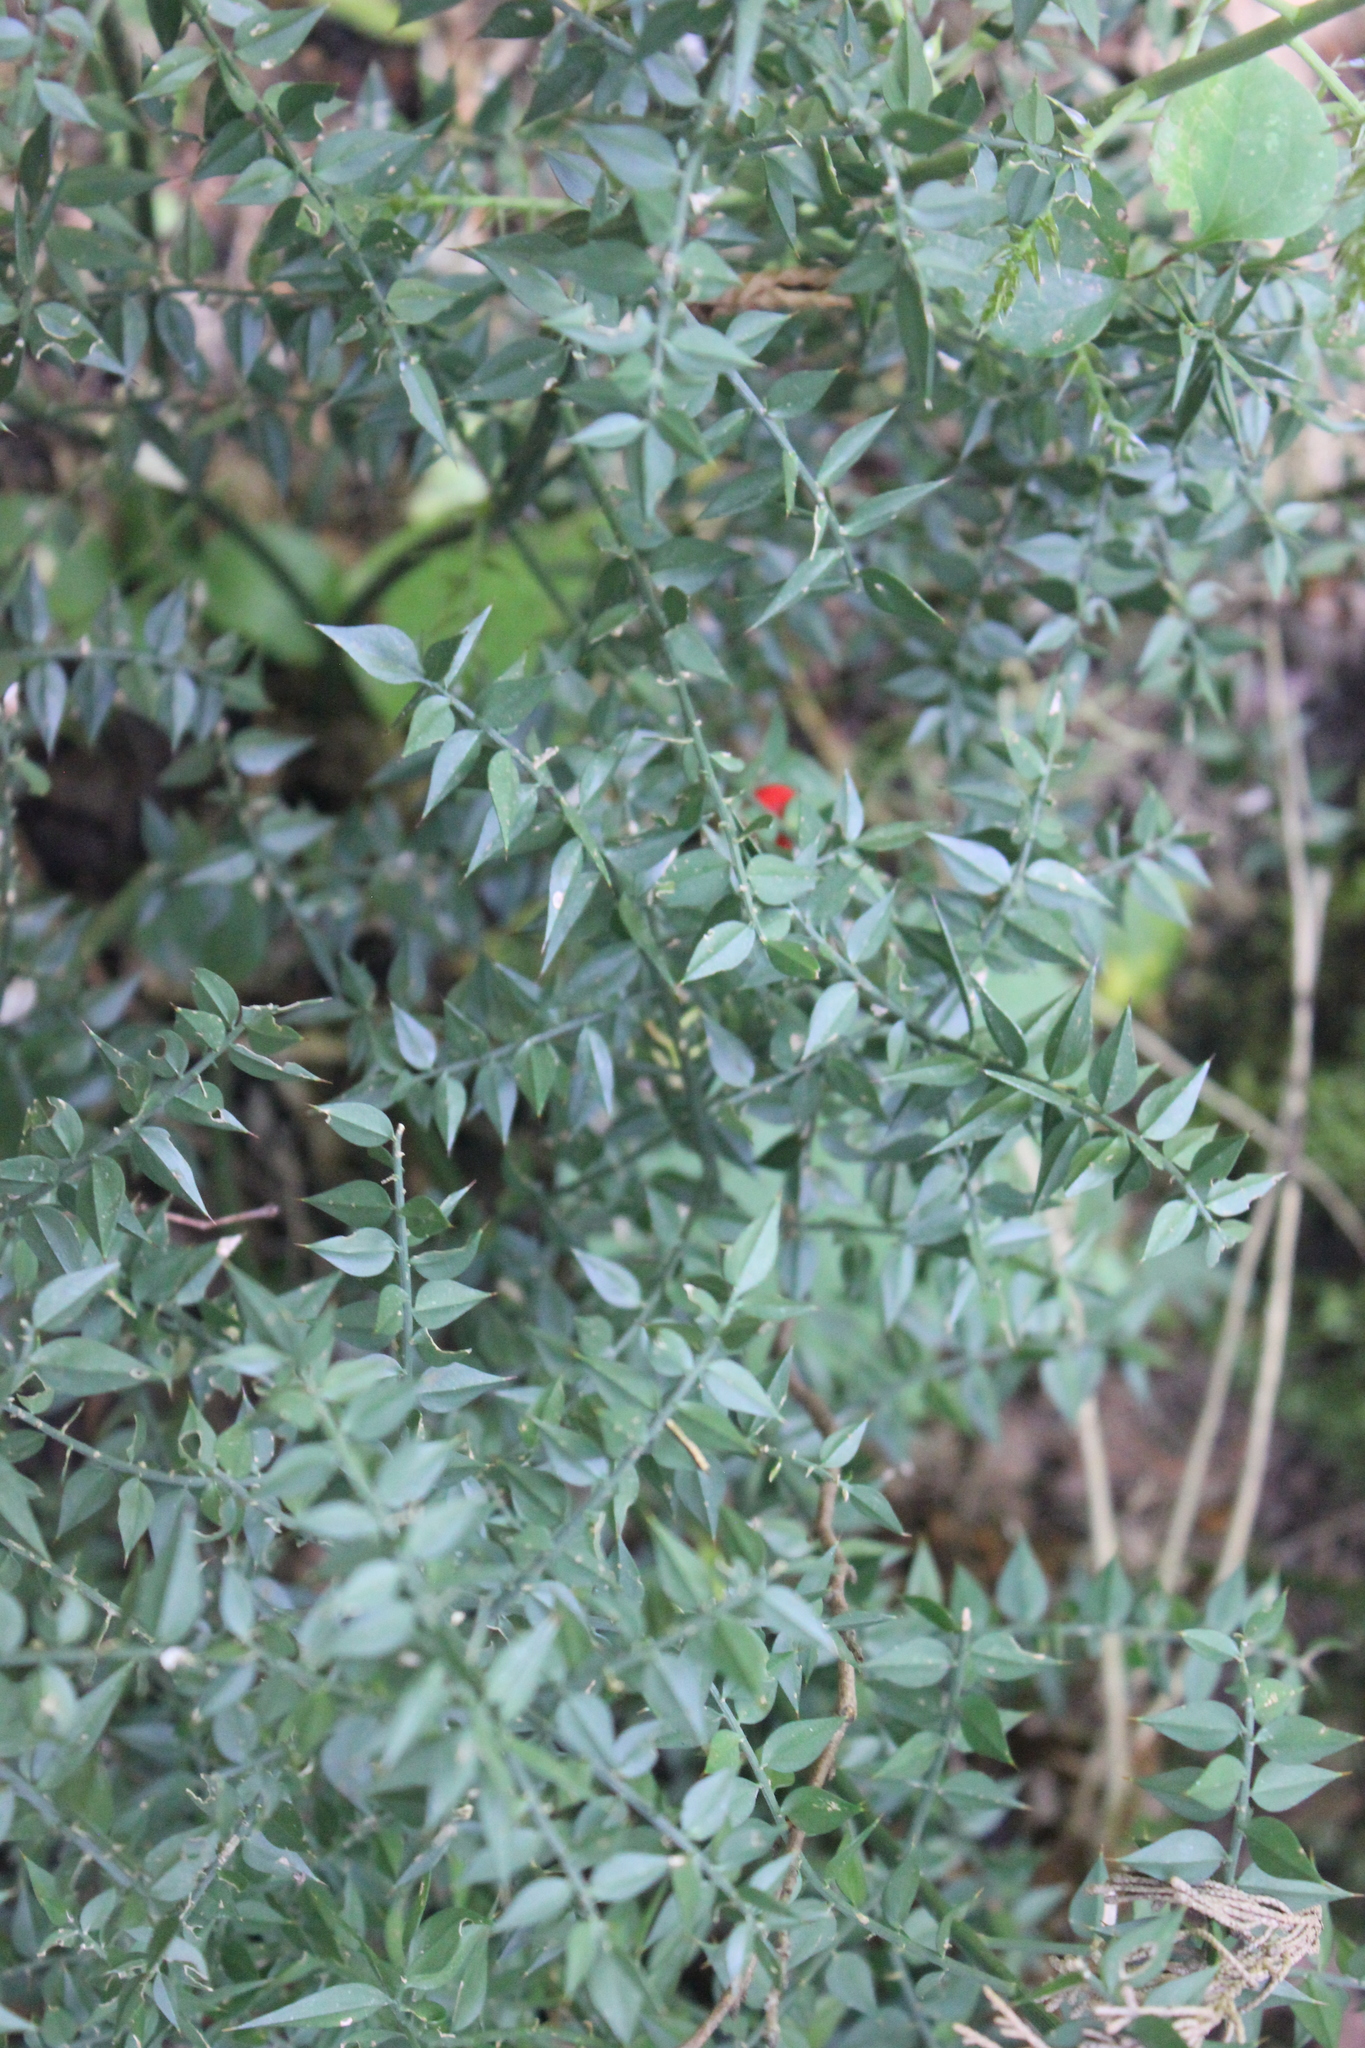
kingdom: Plantae
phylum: Tracheophyta
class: Liliopsida
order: Asparagales
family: Asparagaceae
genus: Ruscus
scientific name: Ruscus aculeatus
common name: Butcher's-broom
